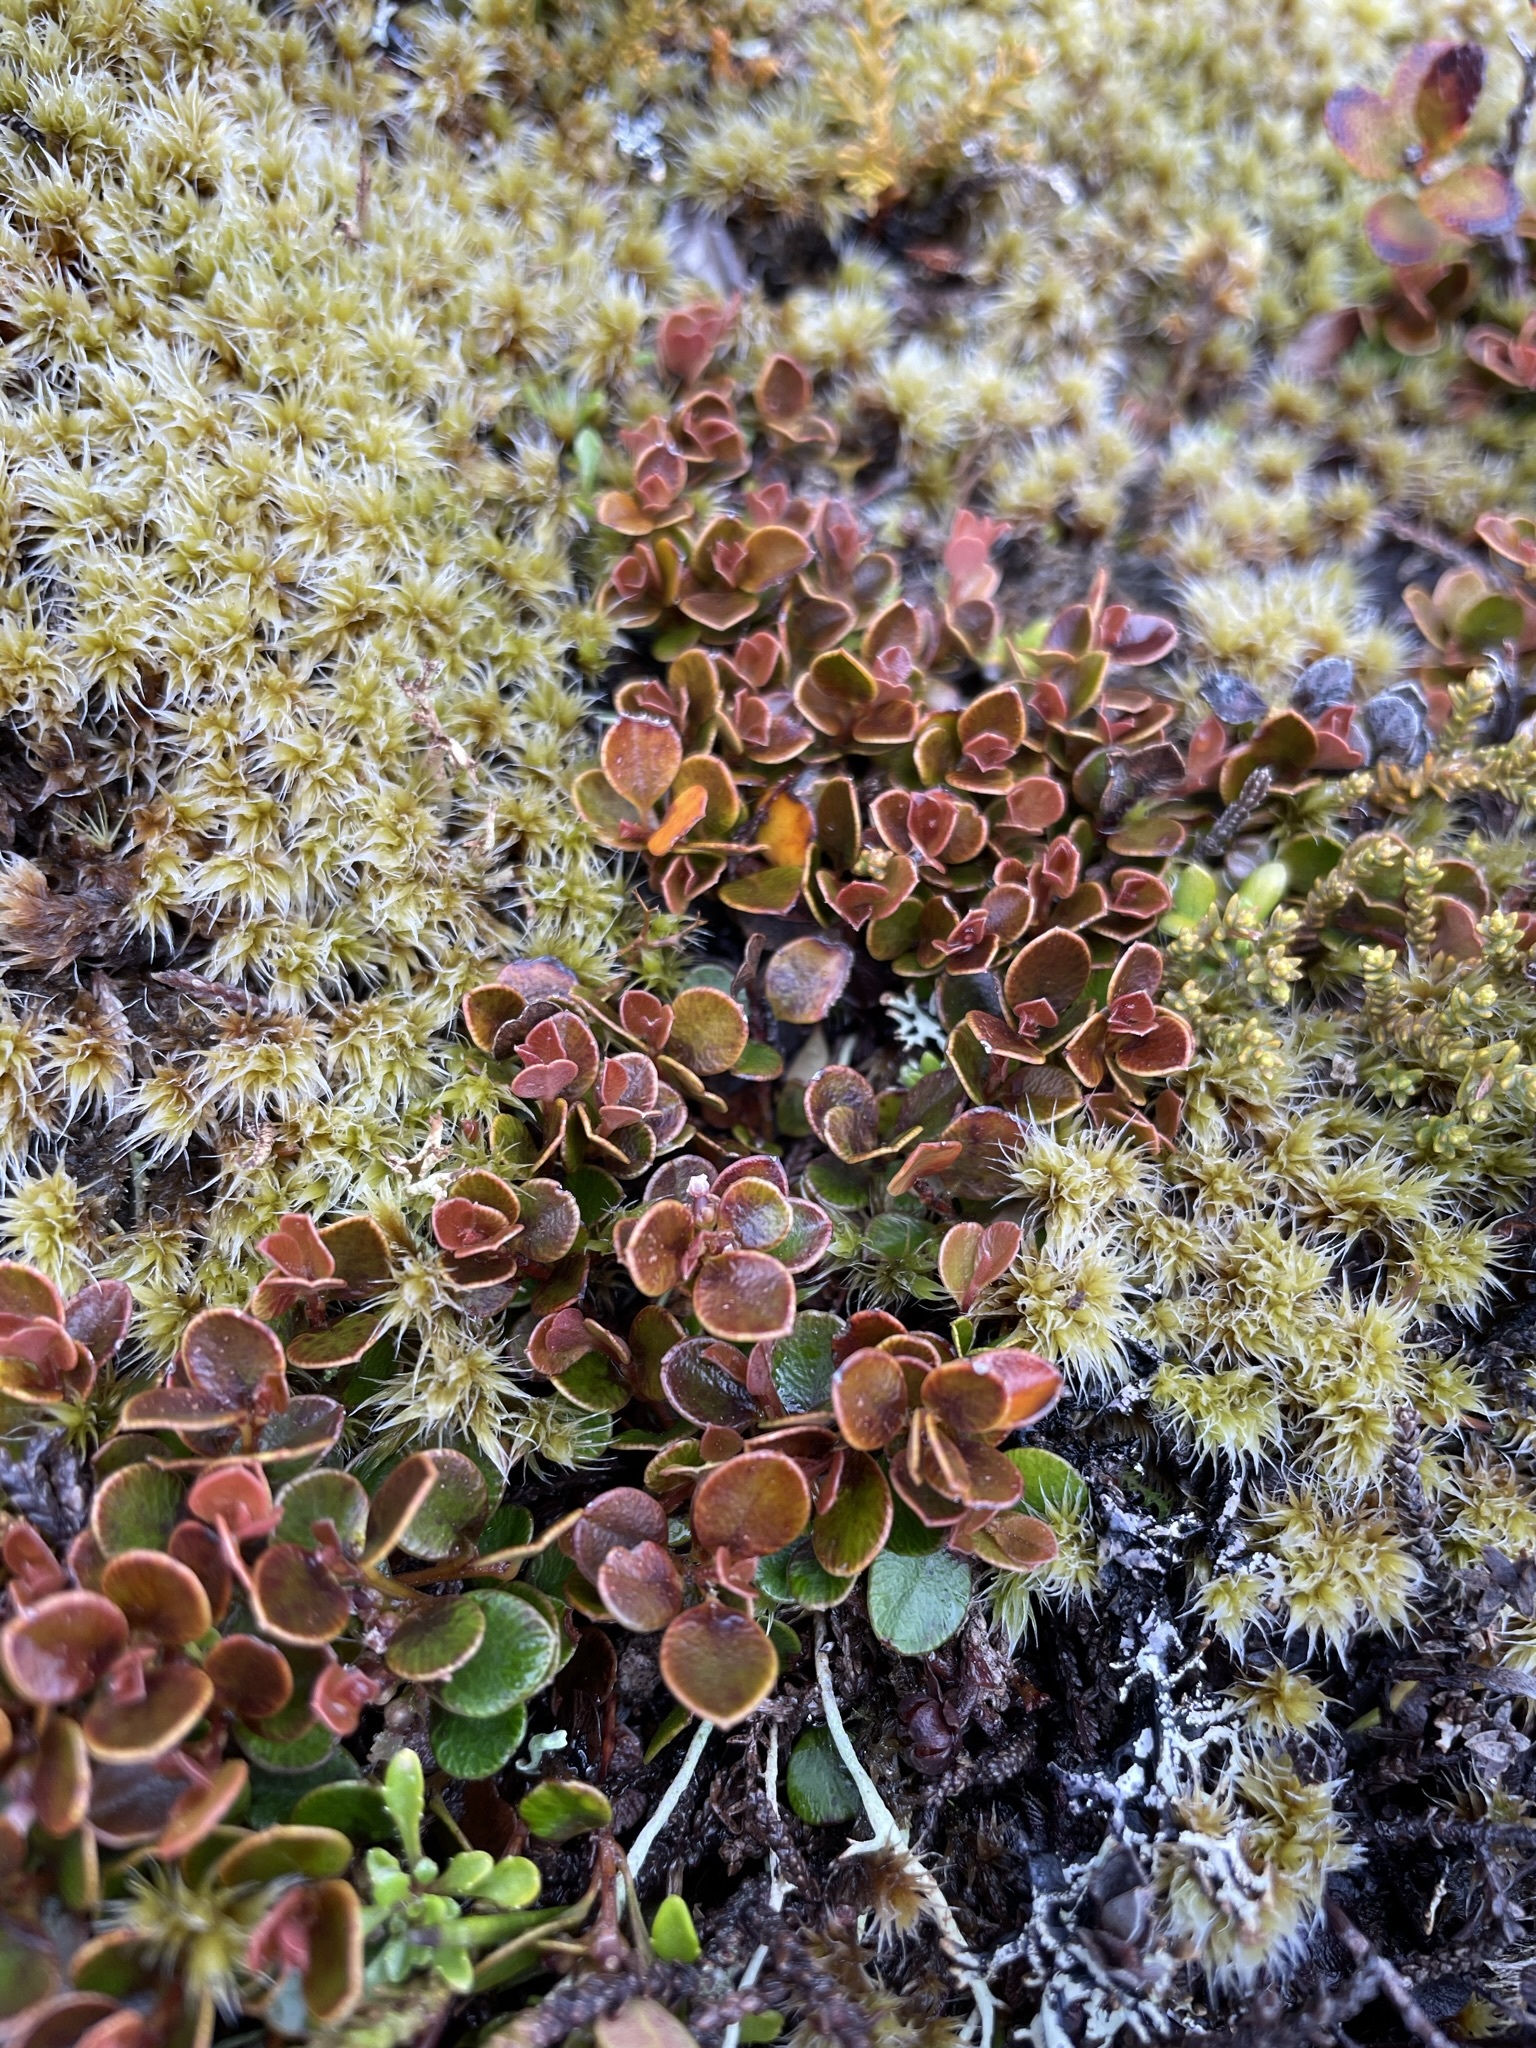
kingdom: Plantae
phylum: Tracheophyta
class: Magnoliopsida
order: Ericales
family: Primulaceae
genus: Myrsine
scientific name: Myrsine nummularia
